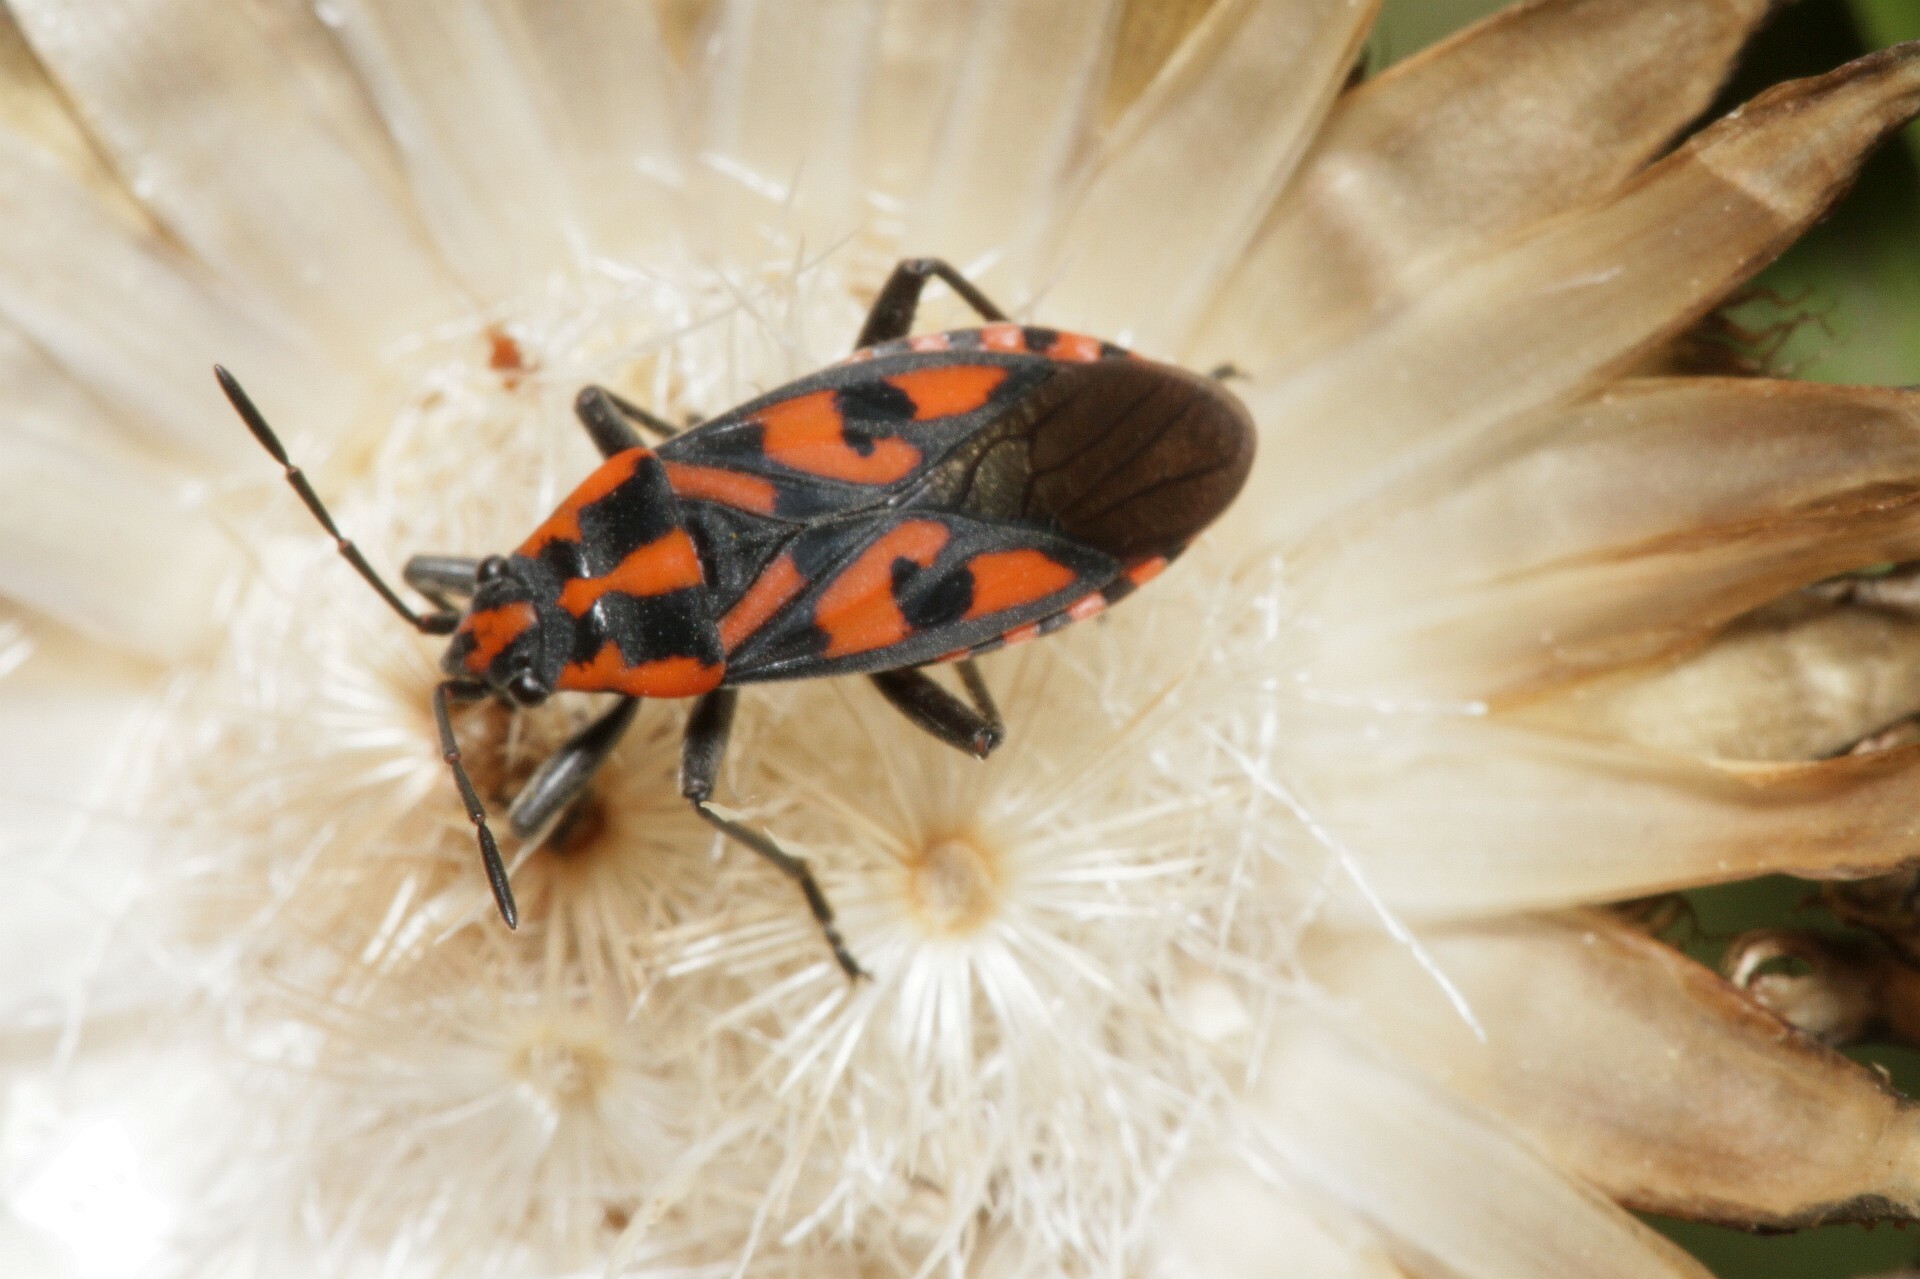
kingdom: Animalia
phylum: Arthropoda
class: Insecta
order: Hemiptera
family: Lygaeidae
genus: Spilostethus
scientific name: Spilostethus saxatilis
